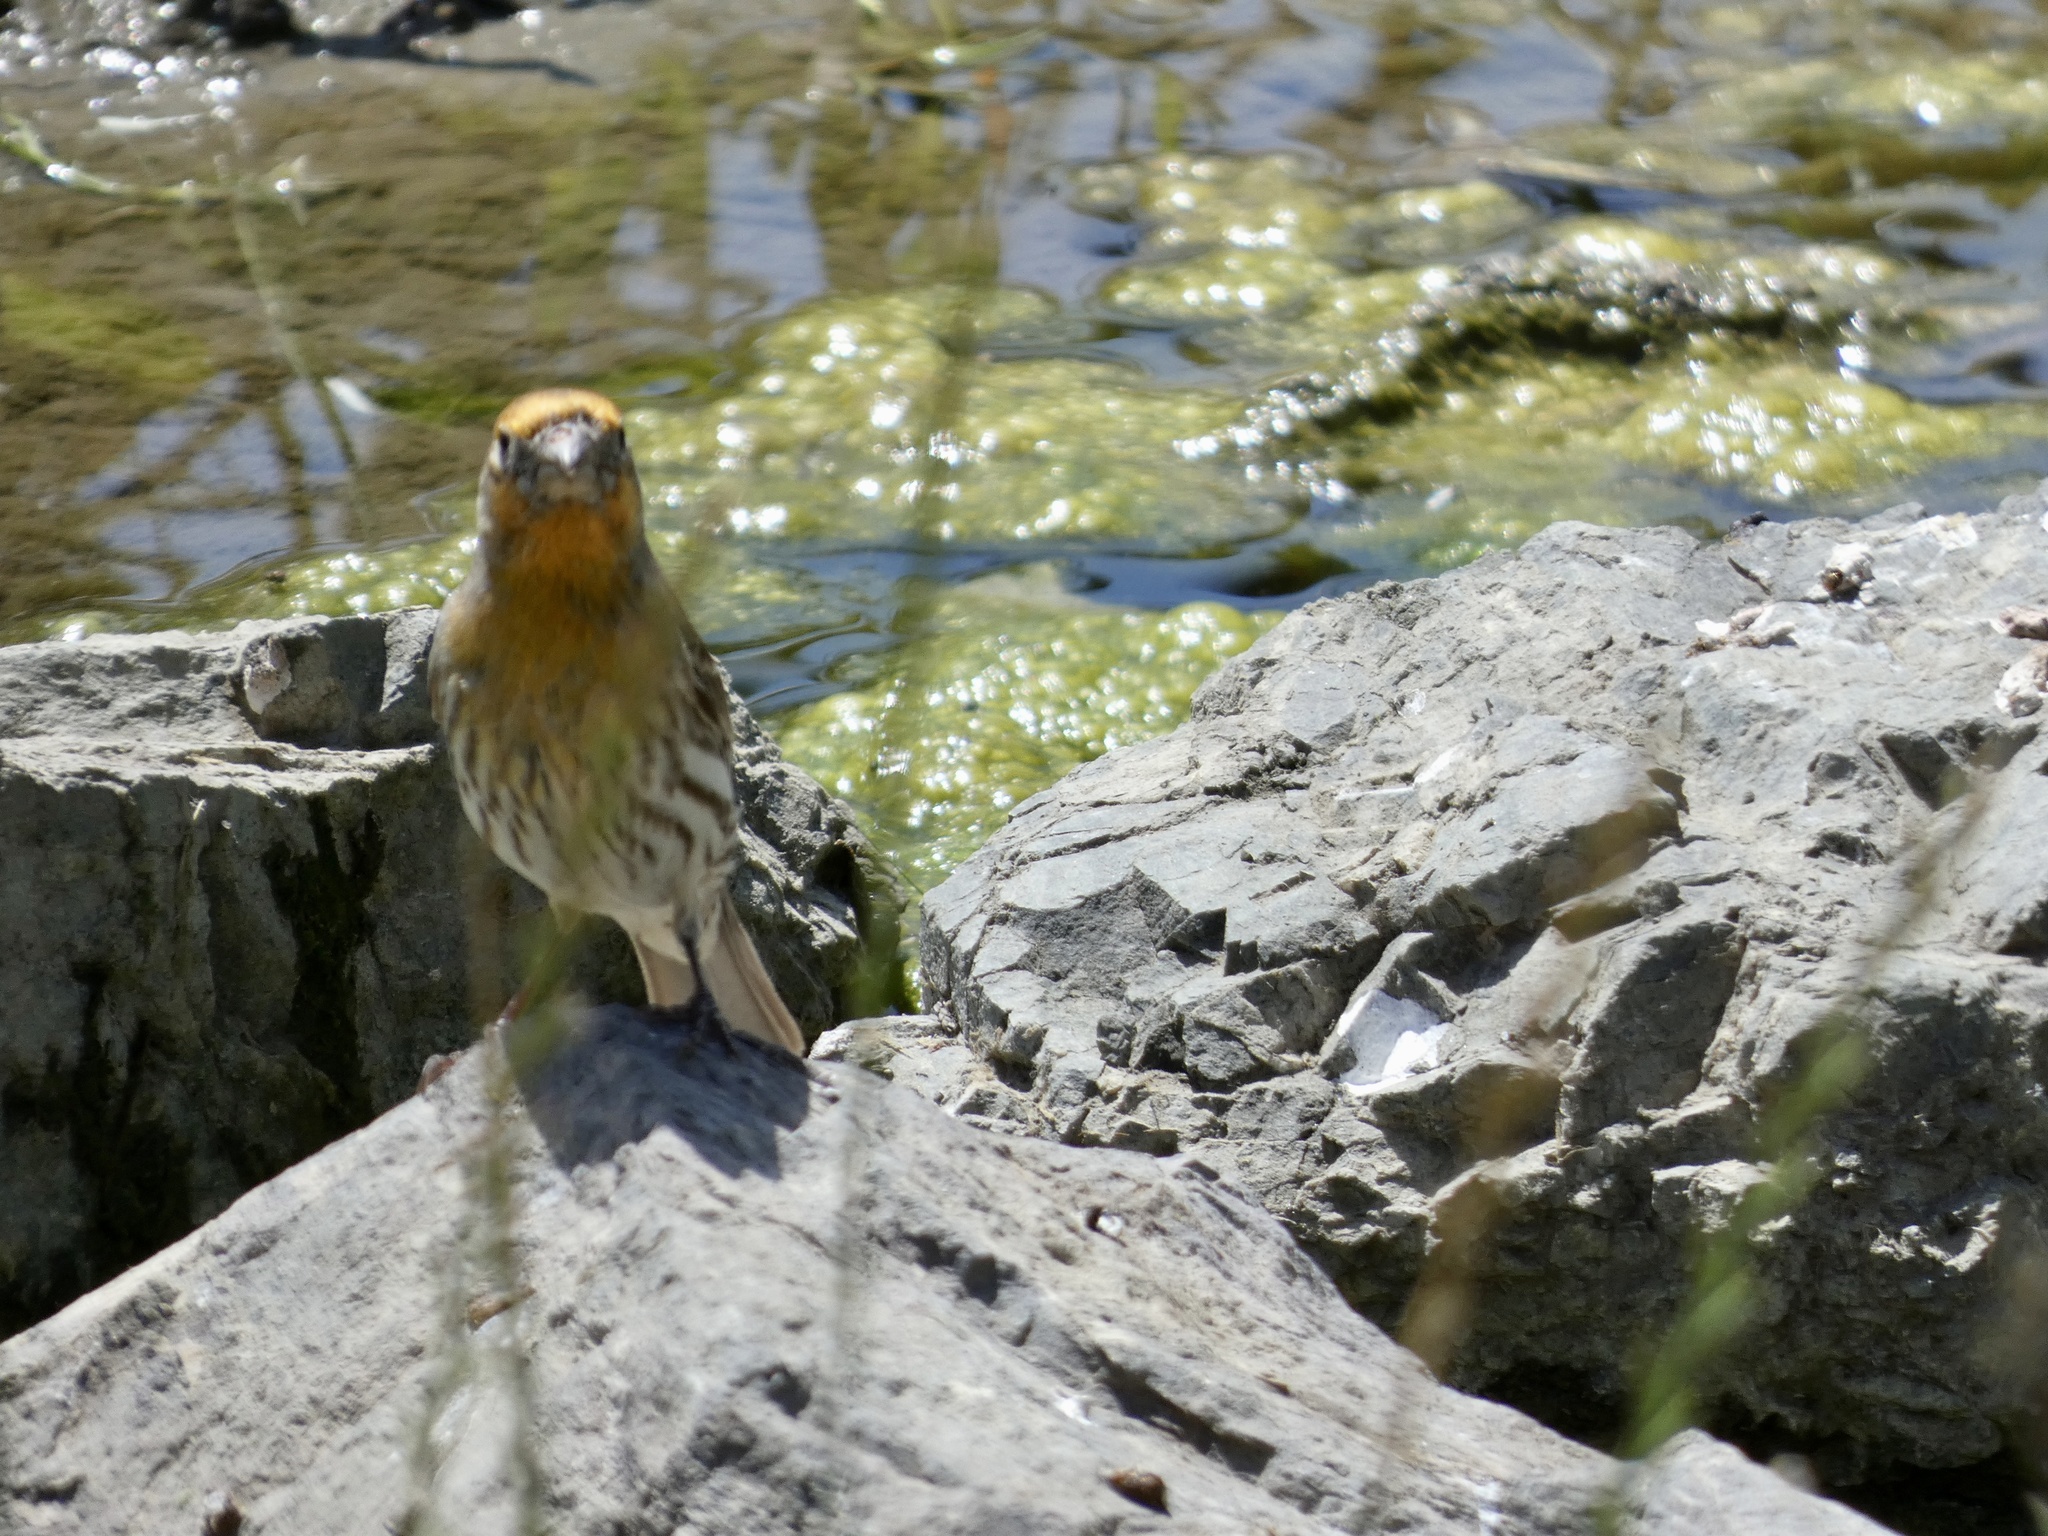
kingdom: Animalia
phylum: Chordata
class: Aves
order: Passeriformes
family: Fringillidae
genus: Haemorhous
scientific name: Haemorhous mexicanus
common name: House finch
